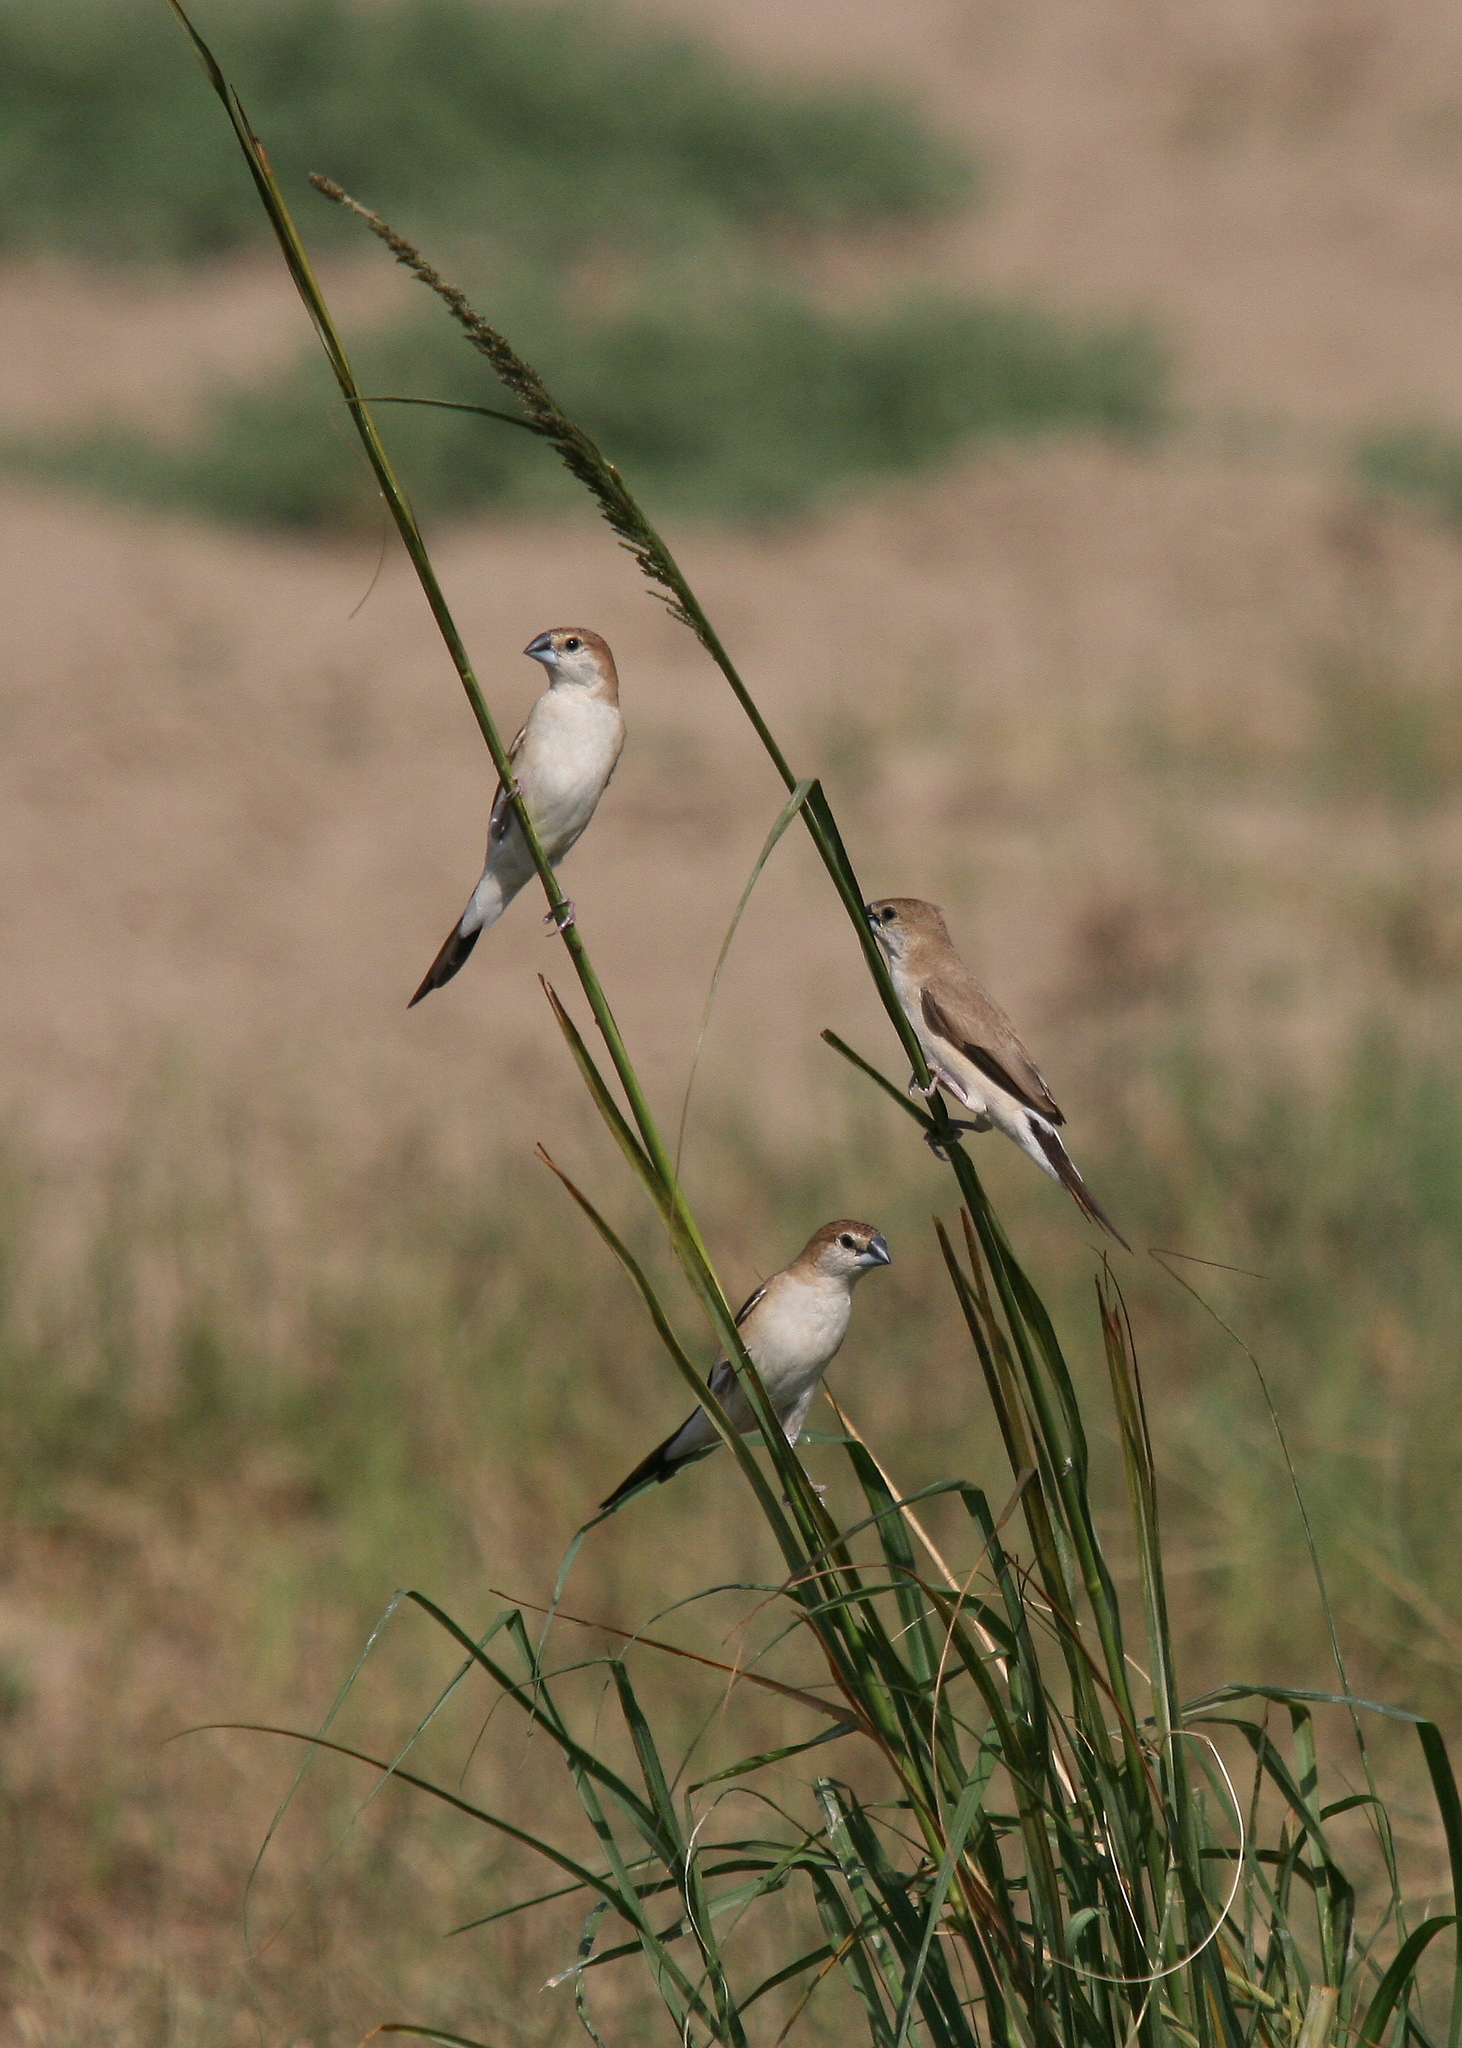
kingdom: Animalia
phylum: Chordata
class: Aves
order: Passeriformes
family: Estrildidae
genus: Euodice
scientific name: Euodice malabarica
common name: Indian silverbill
